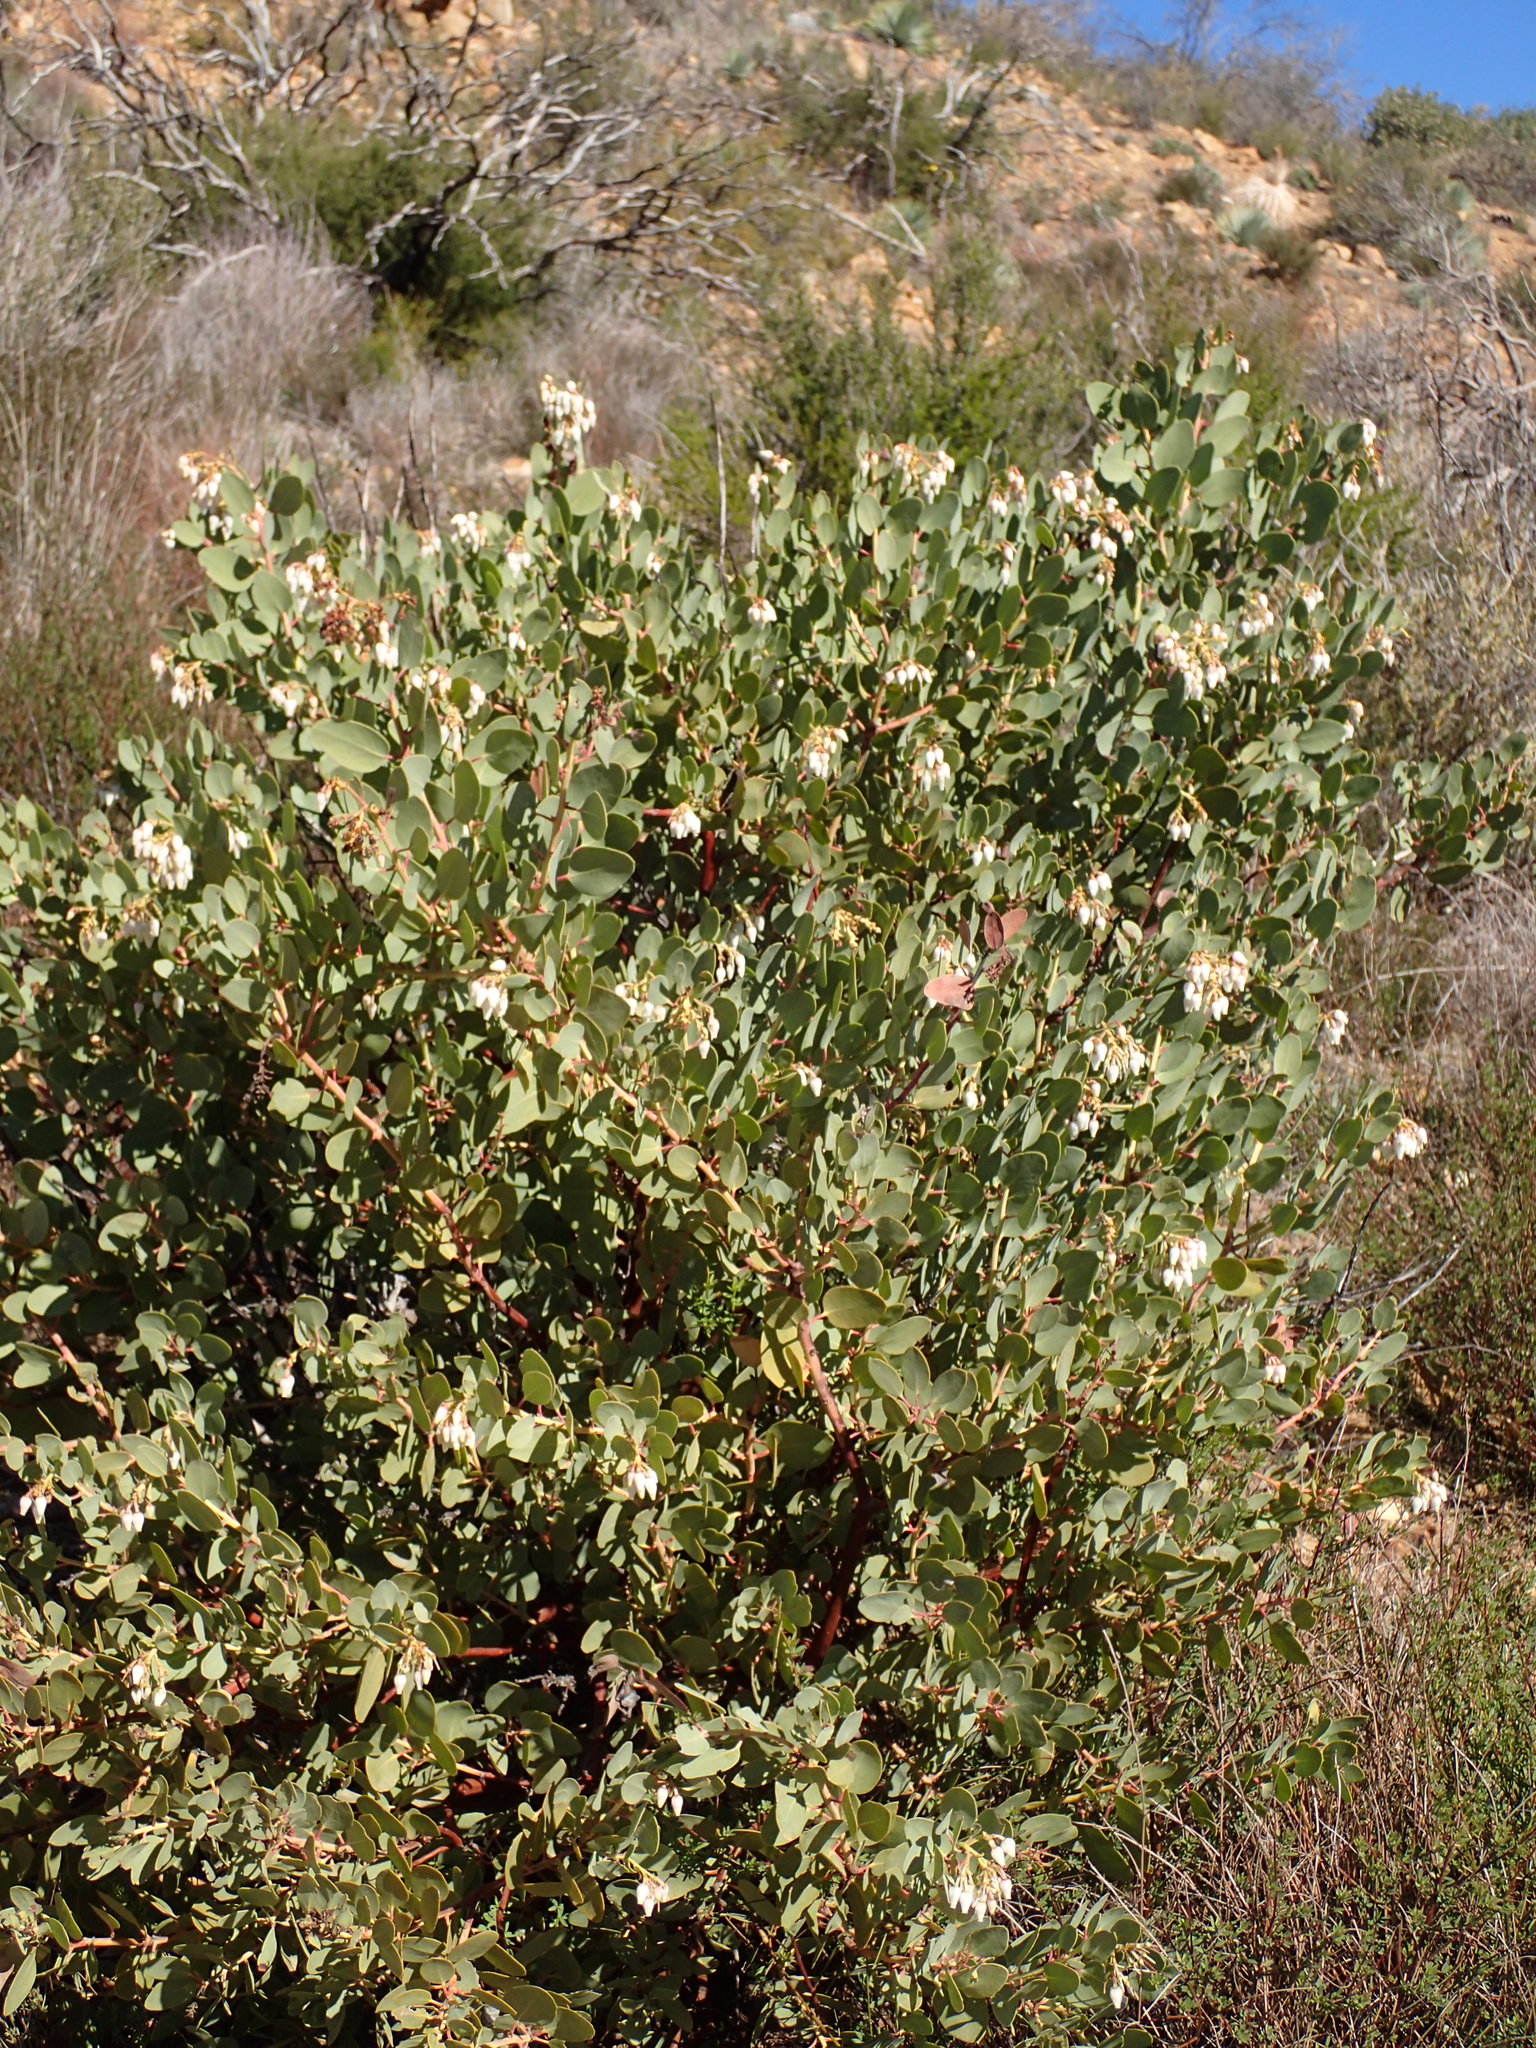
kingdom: Plantae
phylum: Tracheophyta
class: Magnoliopsida
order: Ericales
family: Ericaceae
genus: Arctostaphylos
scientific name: Arctostaphylos glauca
